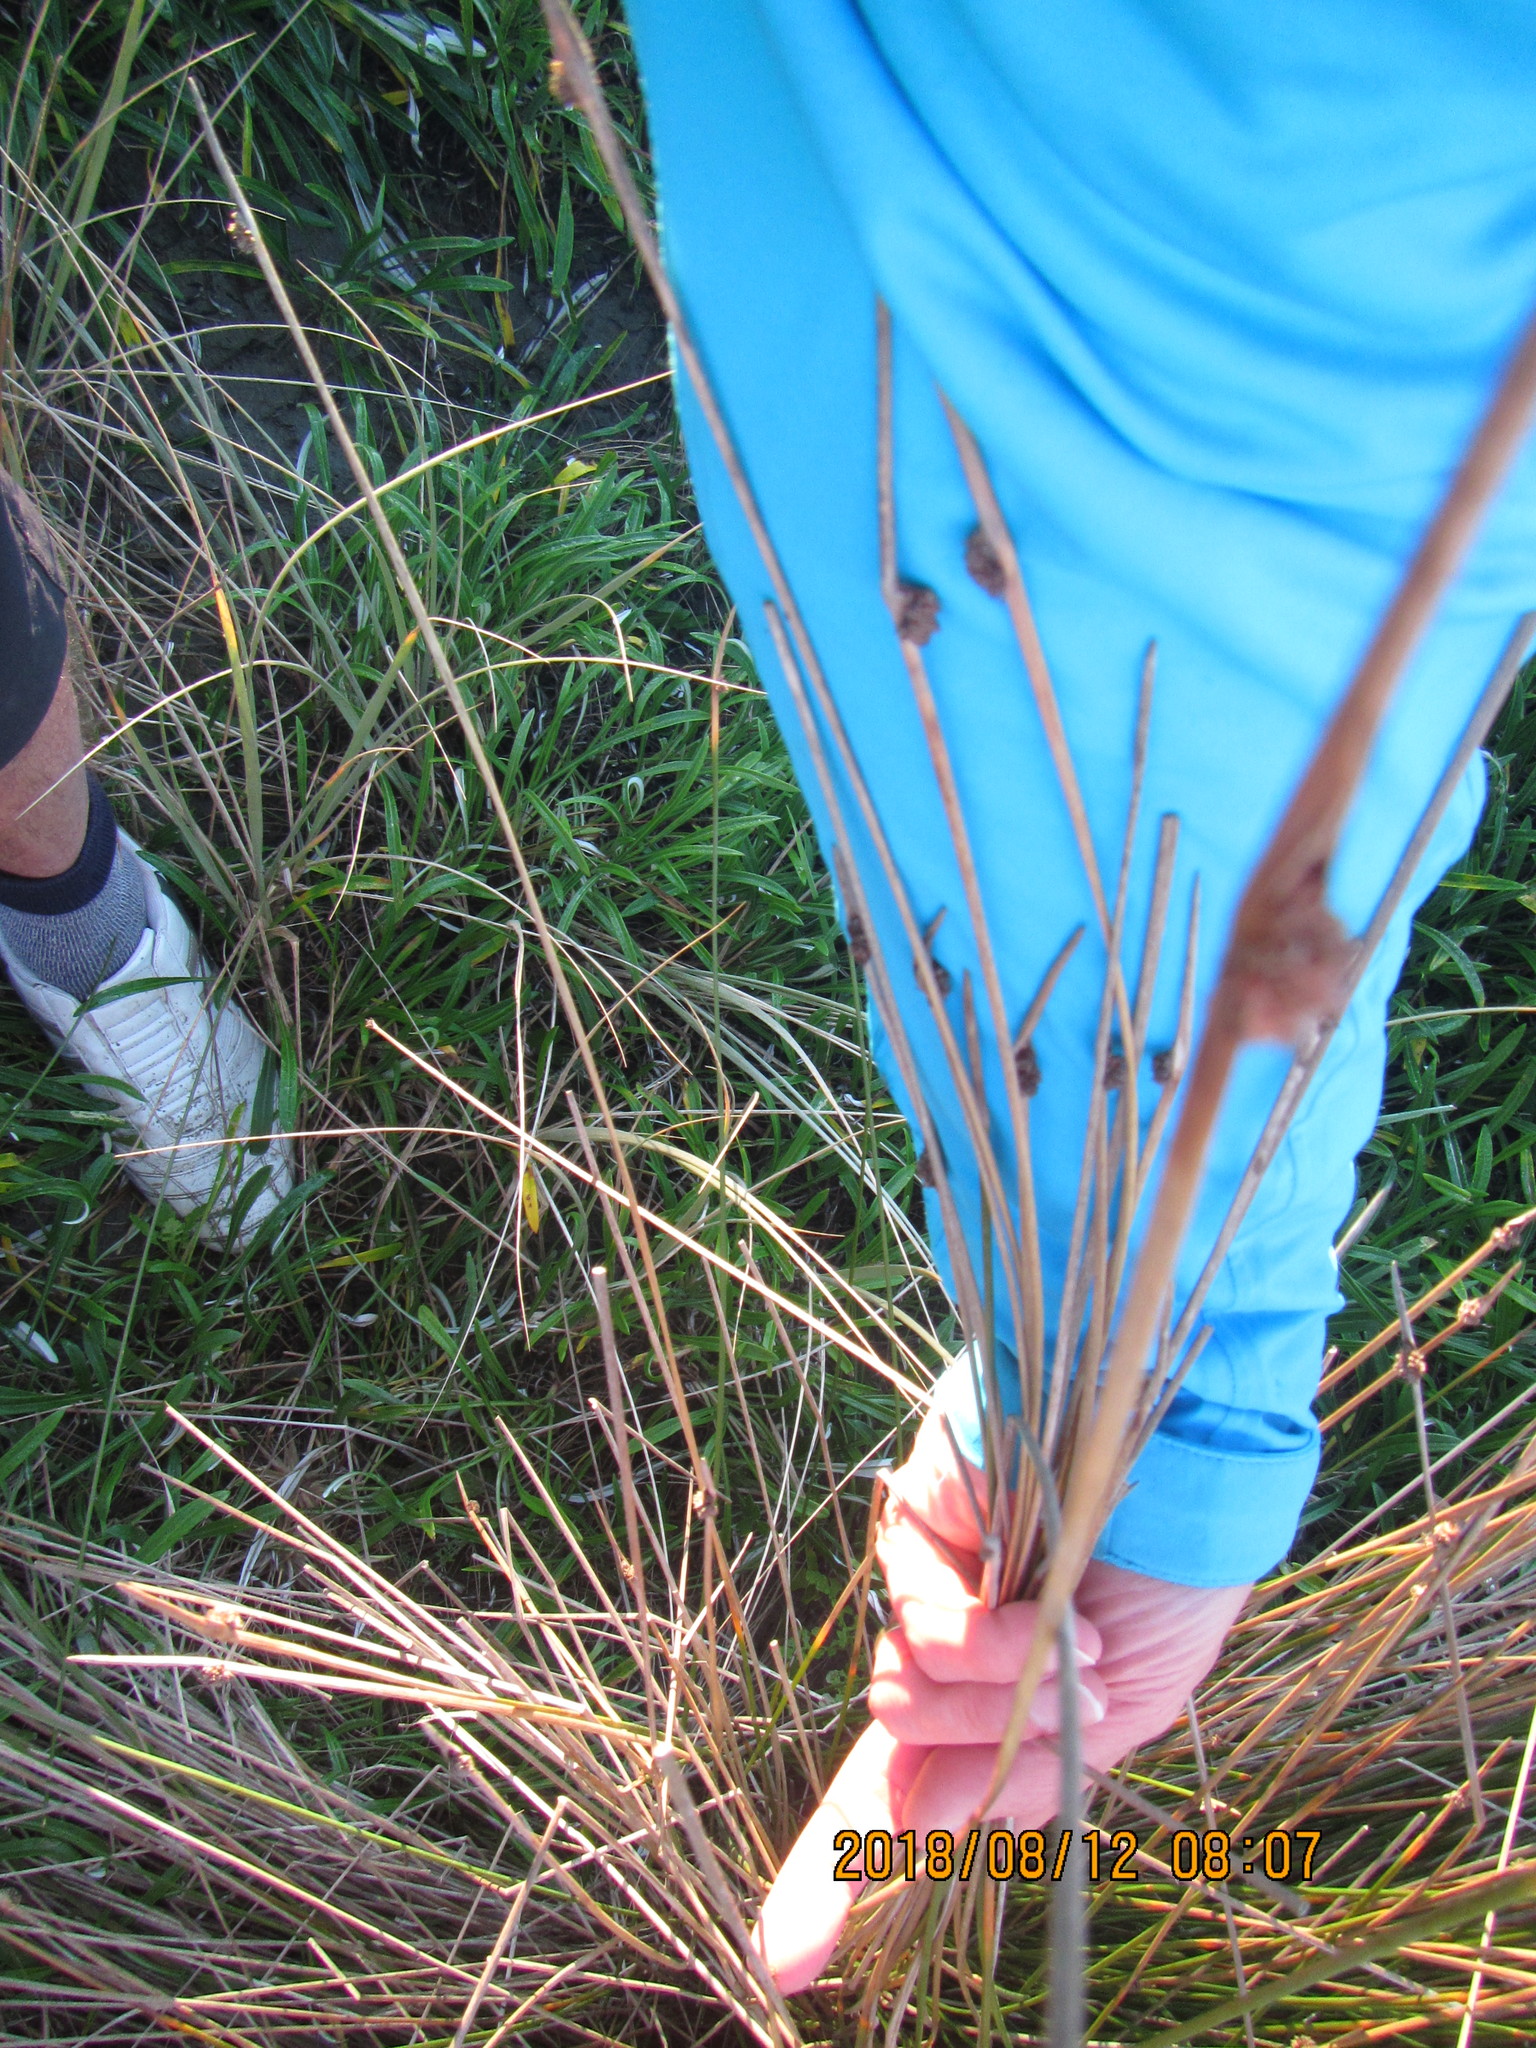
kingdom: Plantae
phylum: Tracheophyta
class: Liliopsida
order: Poales
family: Cyperaceae
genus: Ficinia
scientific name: Ficinia nodosa
